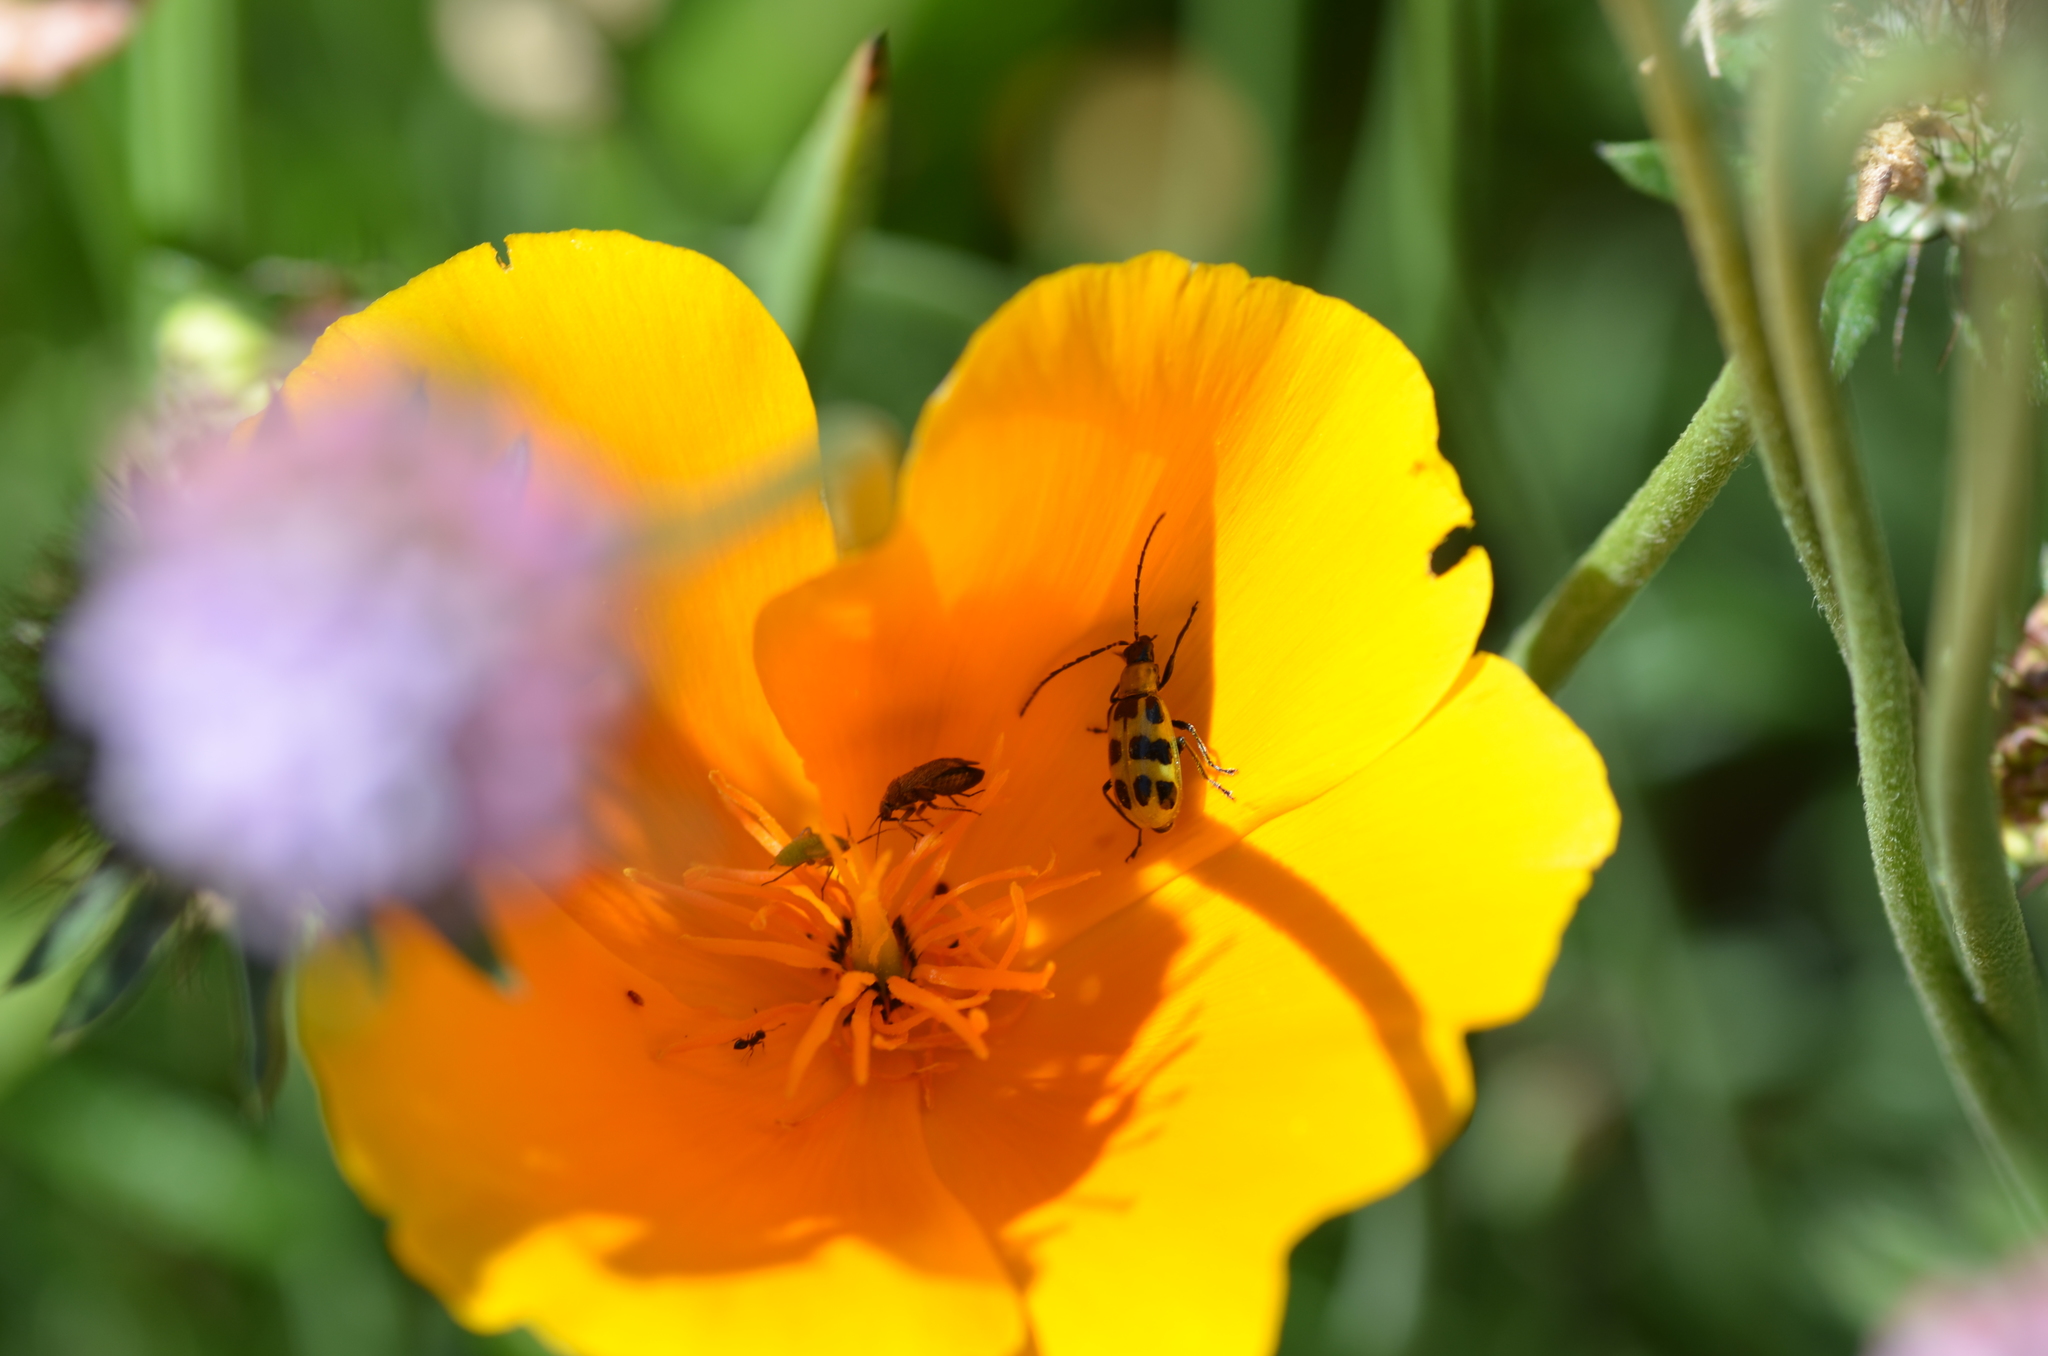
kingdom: Animalia
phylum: Arthropoda
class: Insecta
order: Coleoptera
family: Chrysomelidae
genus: Diabrotica
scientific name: Diabrotica undecimpunctata
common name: Spotted cucumber beetle
